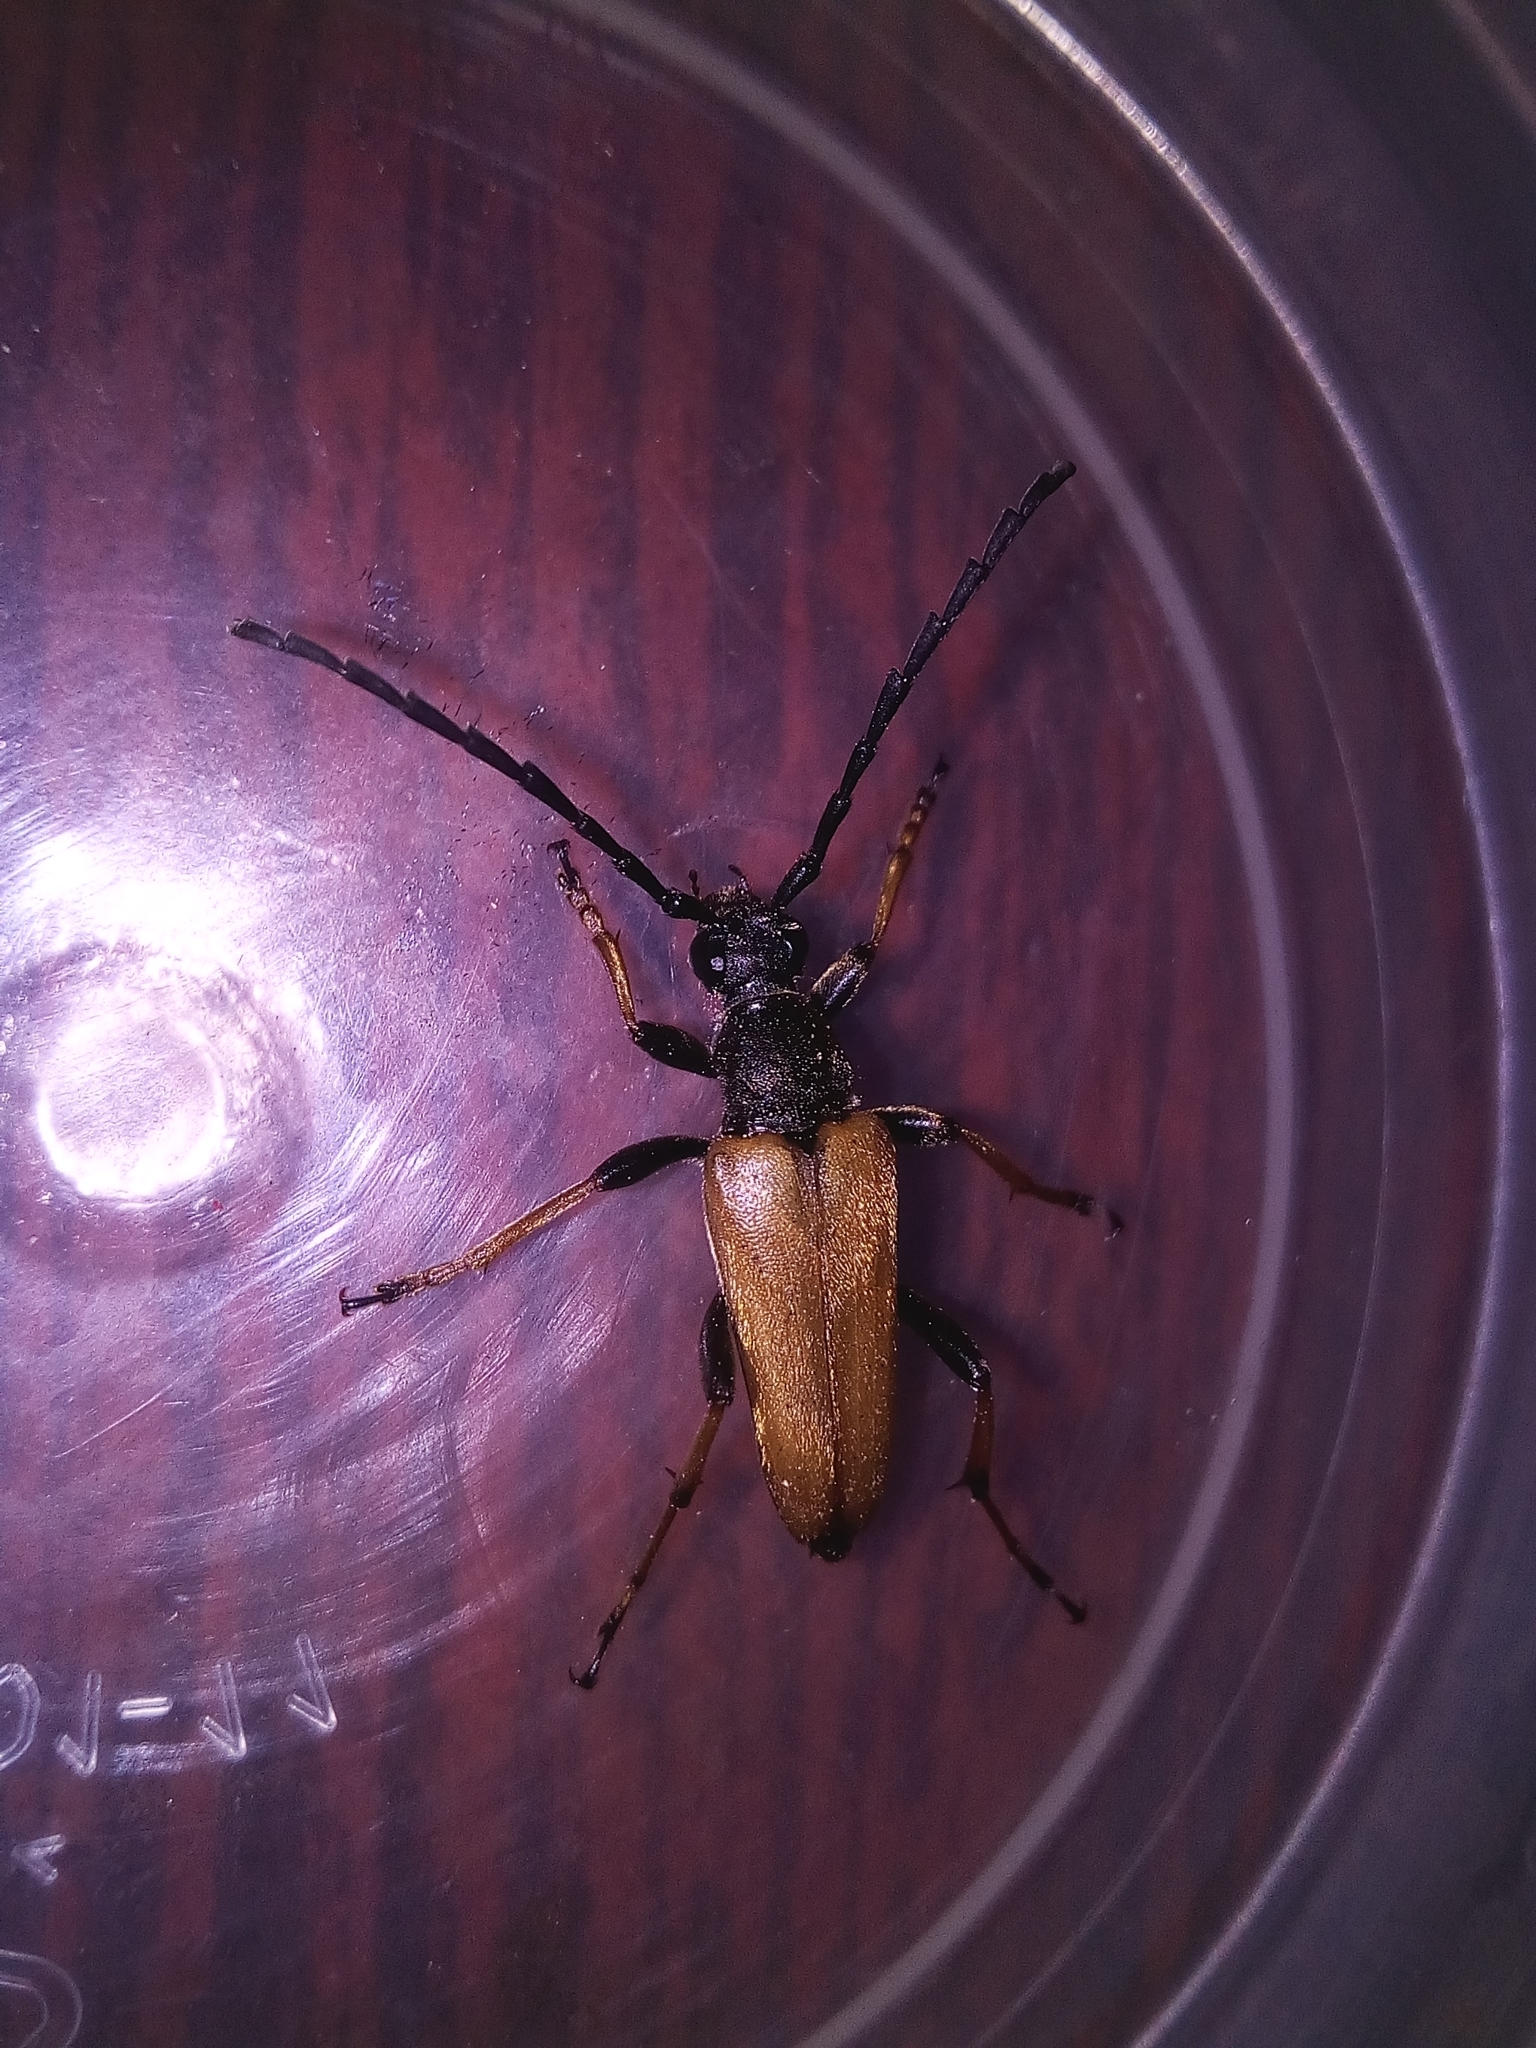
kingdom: Animalia
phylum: Arthropoda
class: Insecta
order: Coleoptera
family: Cerambycidae
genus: Stictoleptura
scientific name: Stictoleptura rubra
